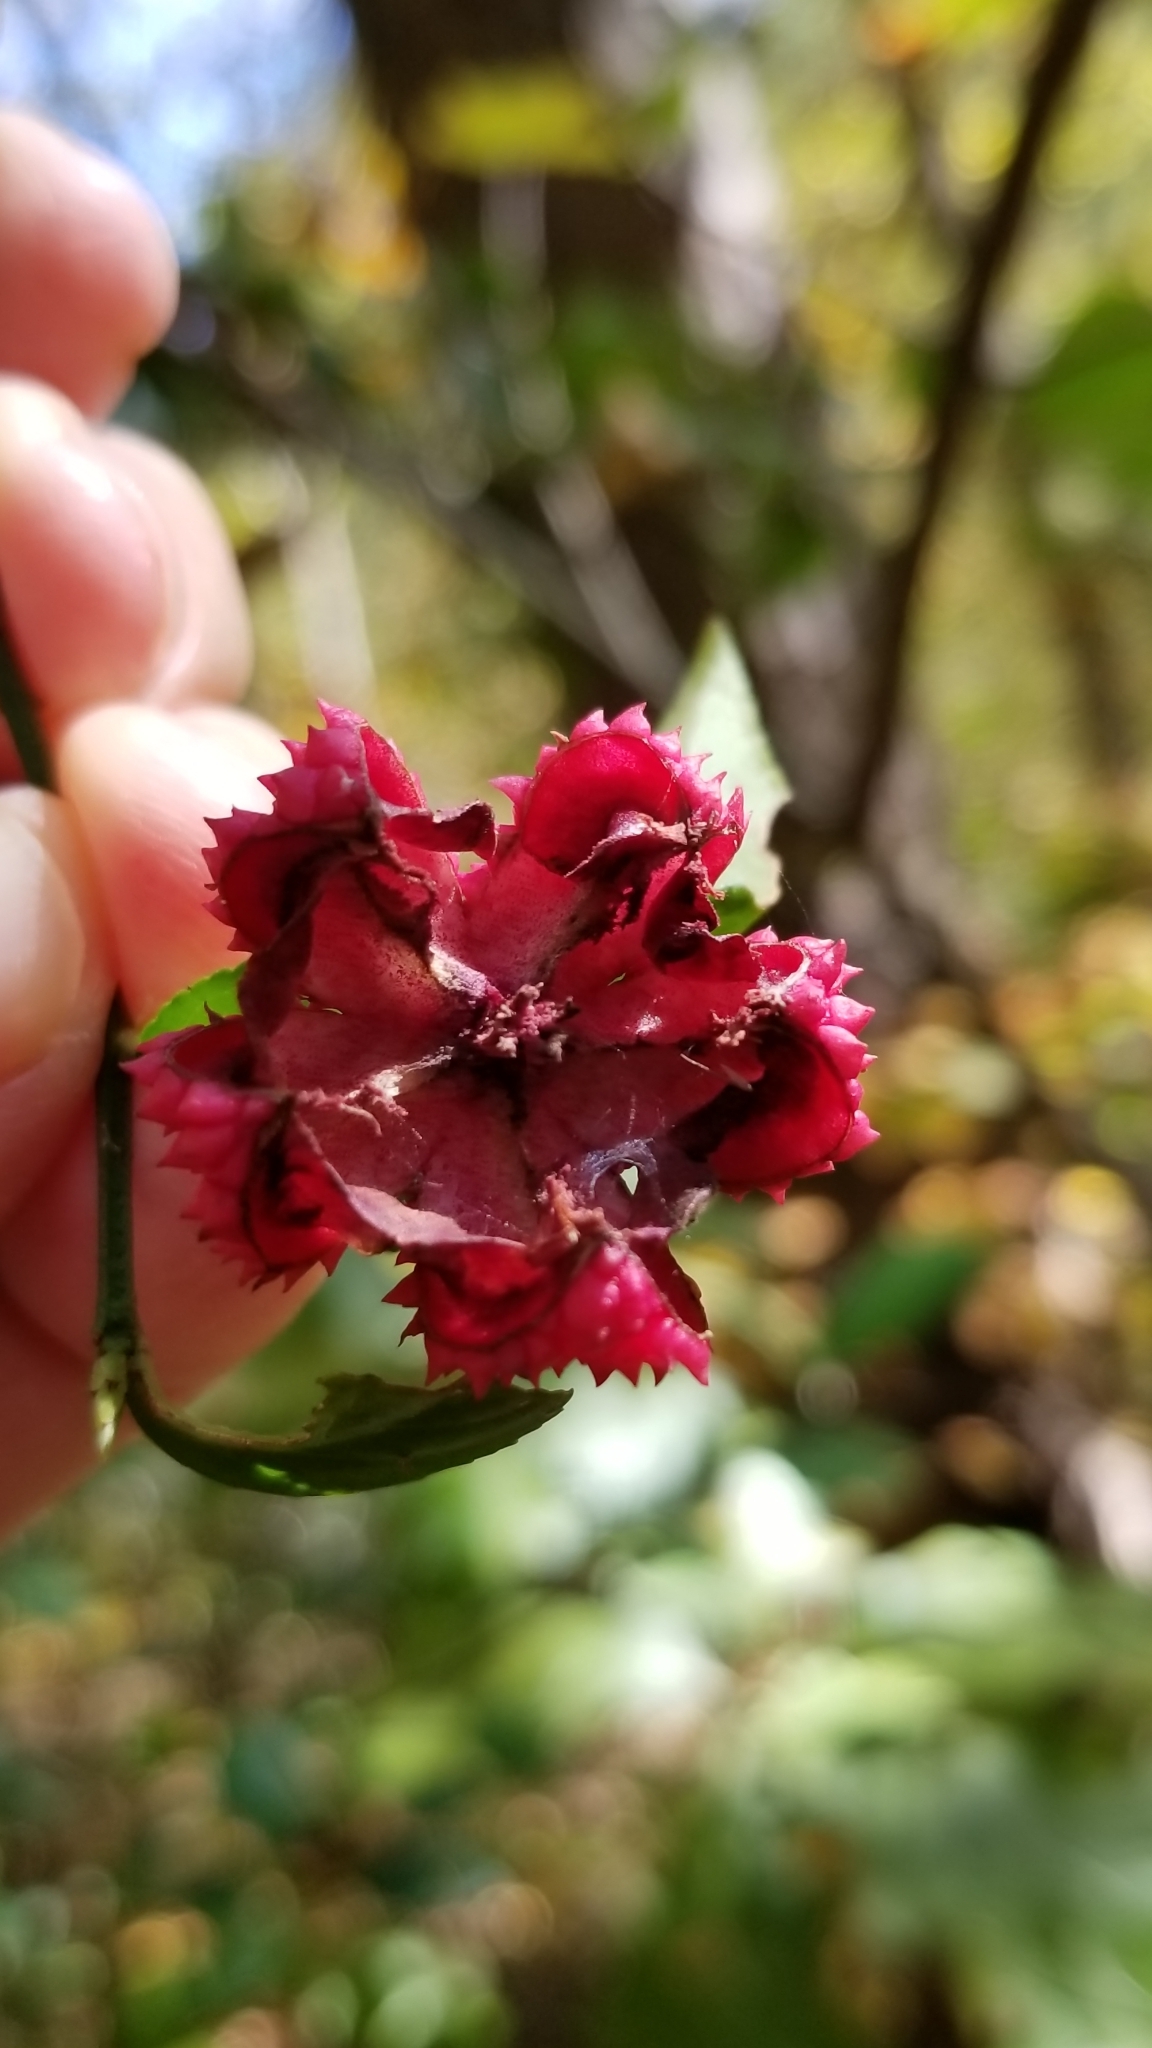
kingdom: Plantae
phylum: Tracheophyta
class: Magnoliopsida
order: Celastrales
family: Celastraceae
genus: Euonymus
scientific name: Euonymus americanus
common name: Bursting-heart
